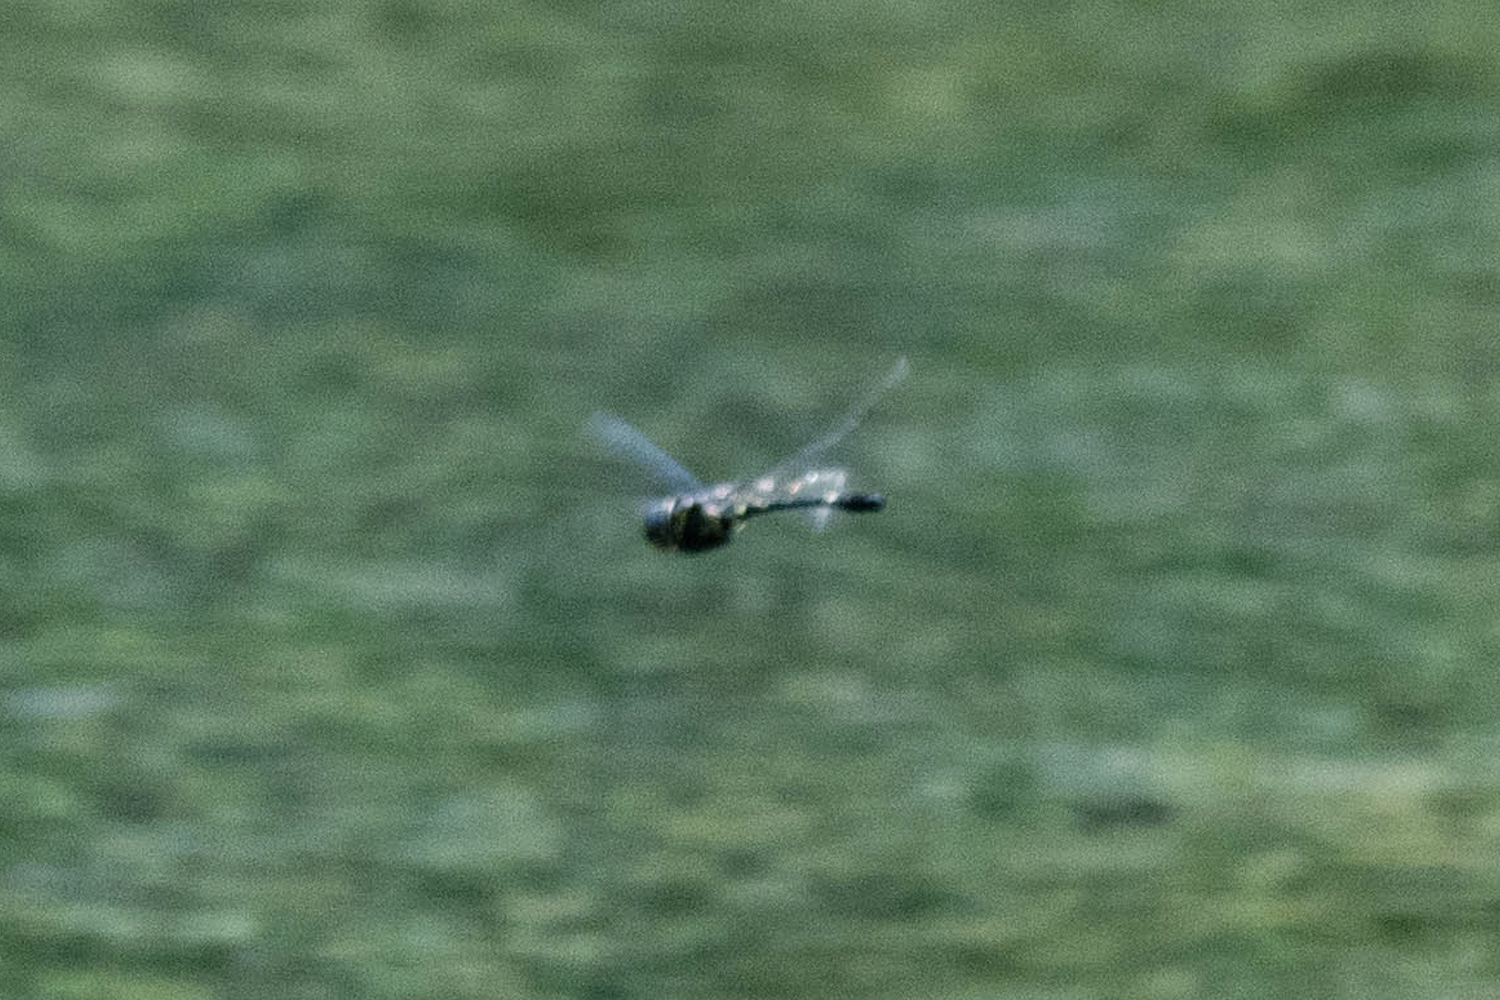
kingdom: Animalia
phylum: Arthropoda
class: Insecta
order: Odonata
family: Macromiidae
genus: Macromia
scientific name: Macromia clio
